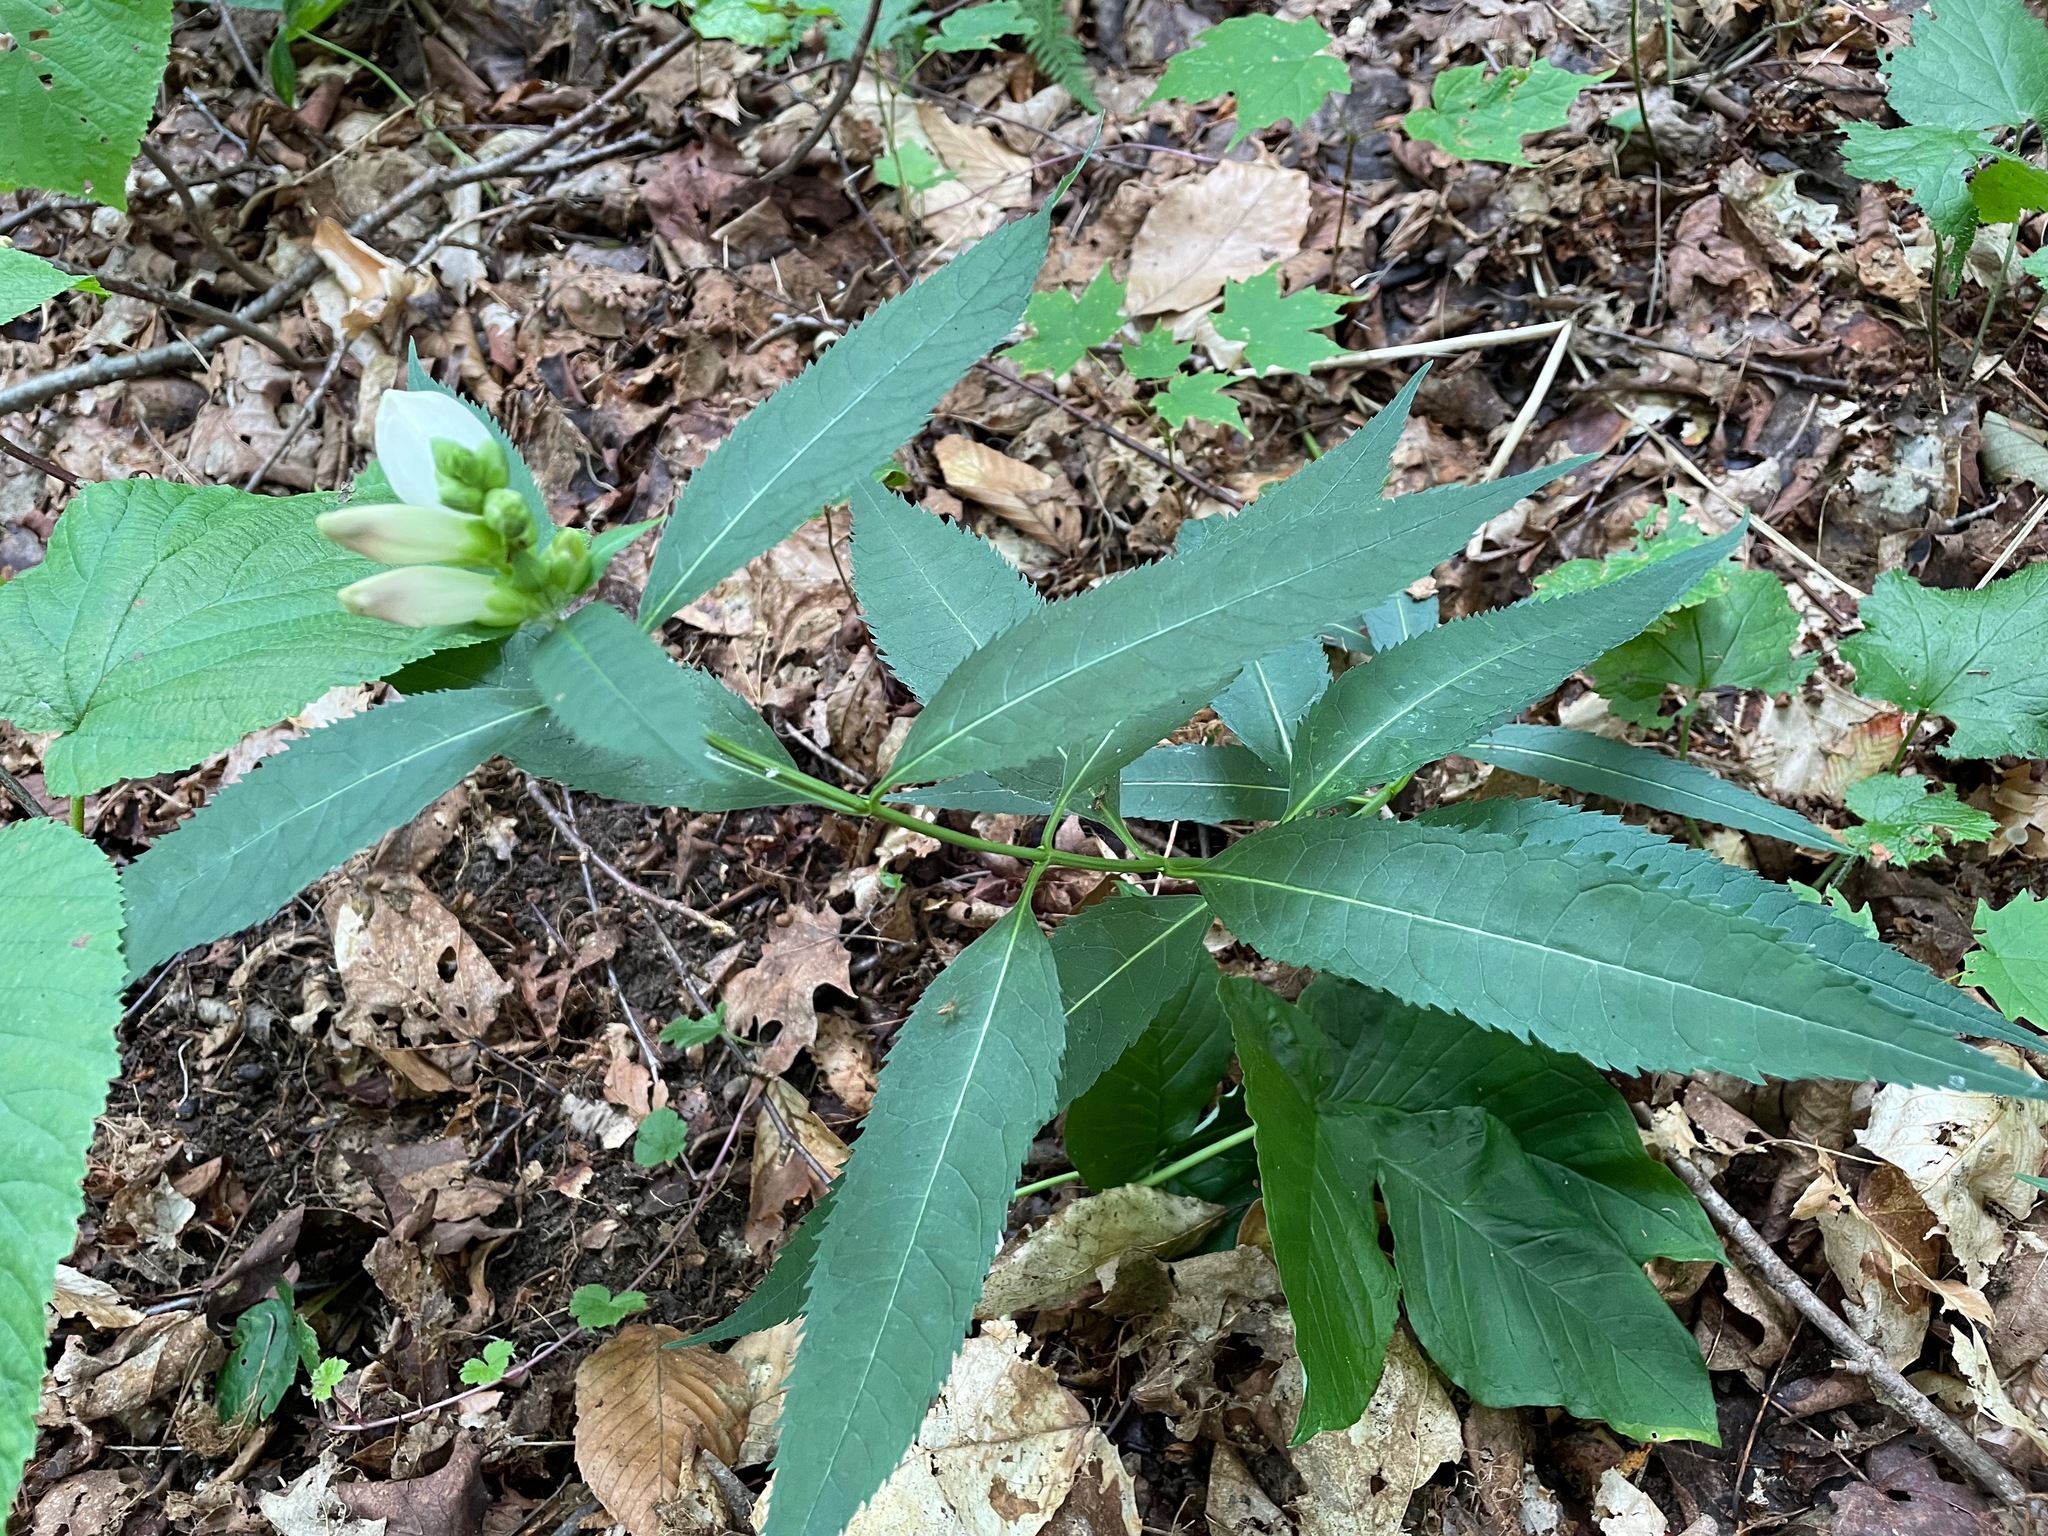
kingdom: Plantae
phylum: Tracheophyta
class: Magnoliopsida
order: Lamiales
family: Plantaginaceae
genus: Chelone
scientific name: Chelone glabra
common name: Snakehead
